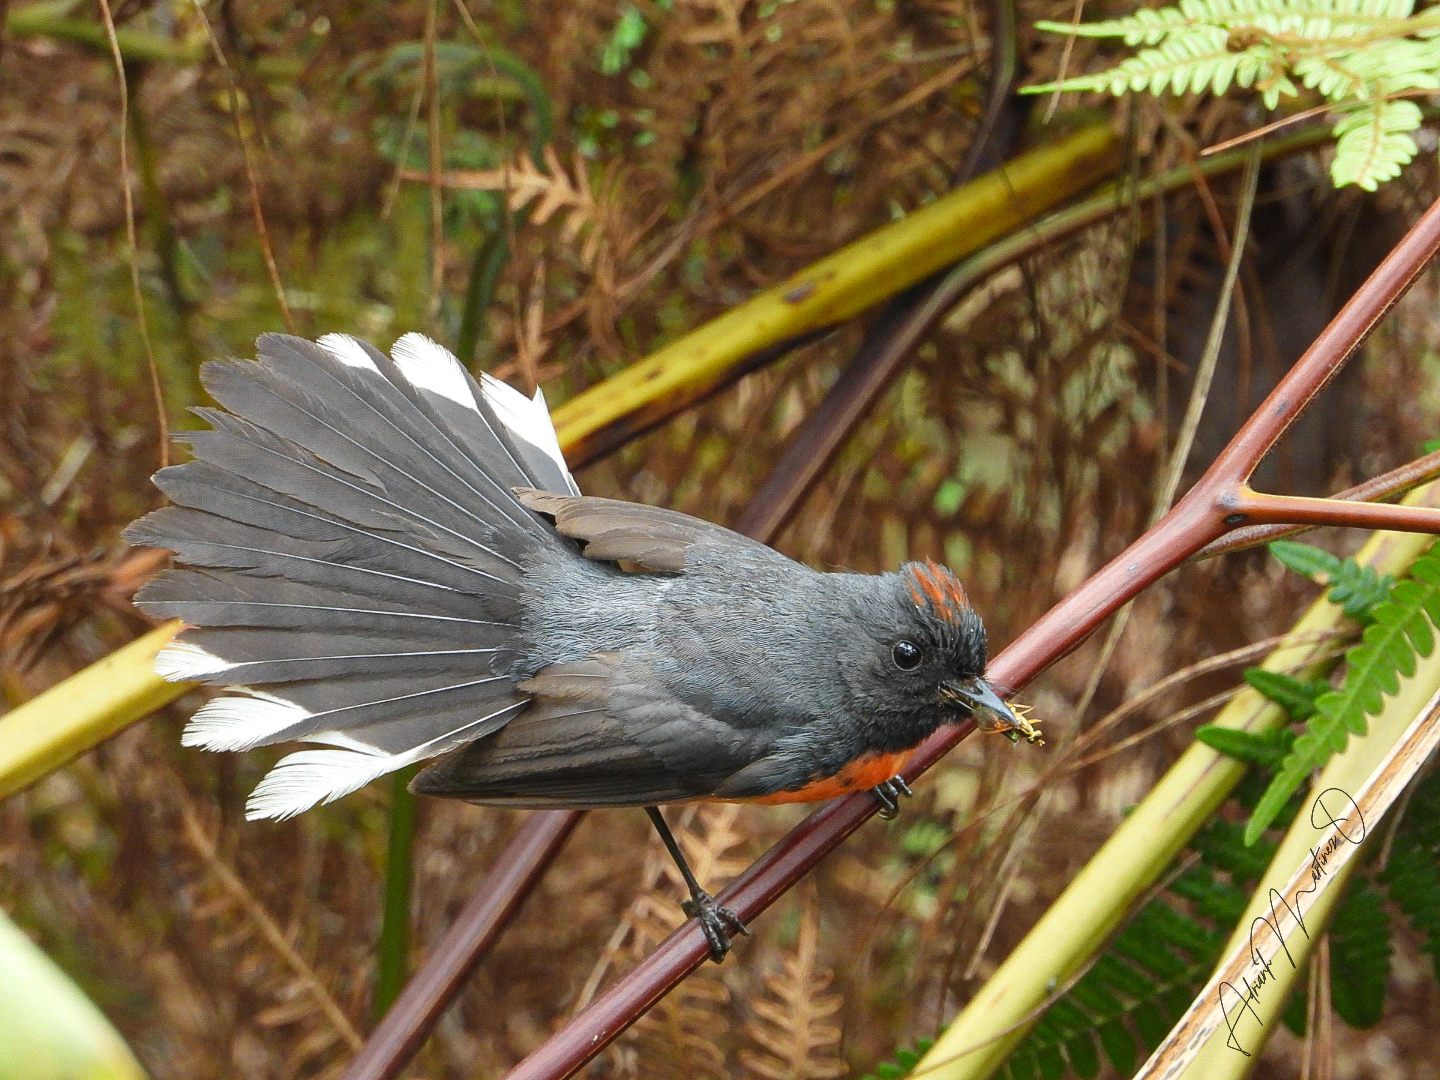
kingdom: Animalia
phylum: Chordata
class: Aves
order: Passeriformes
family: Parulidae
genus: Myioborus
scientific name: Myioborus miniatus
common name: Slate-throated redstart
